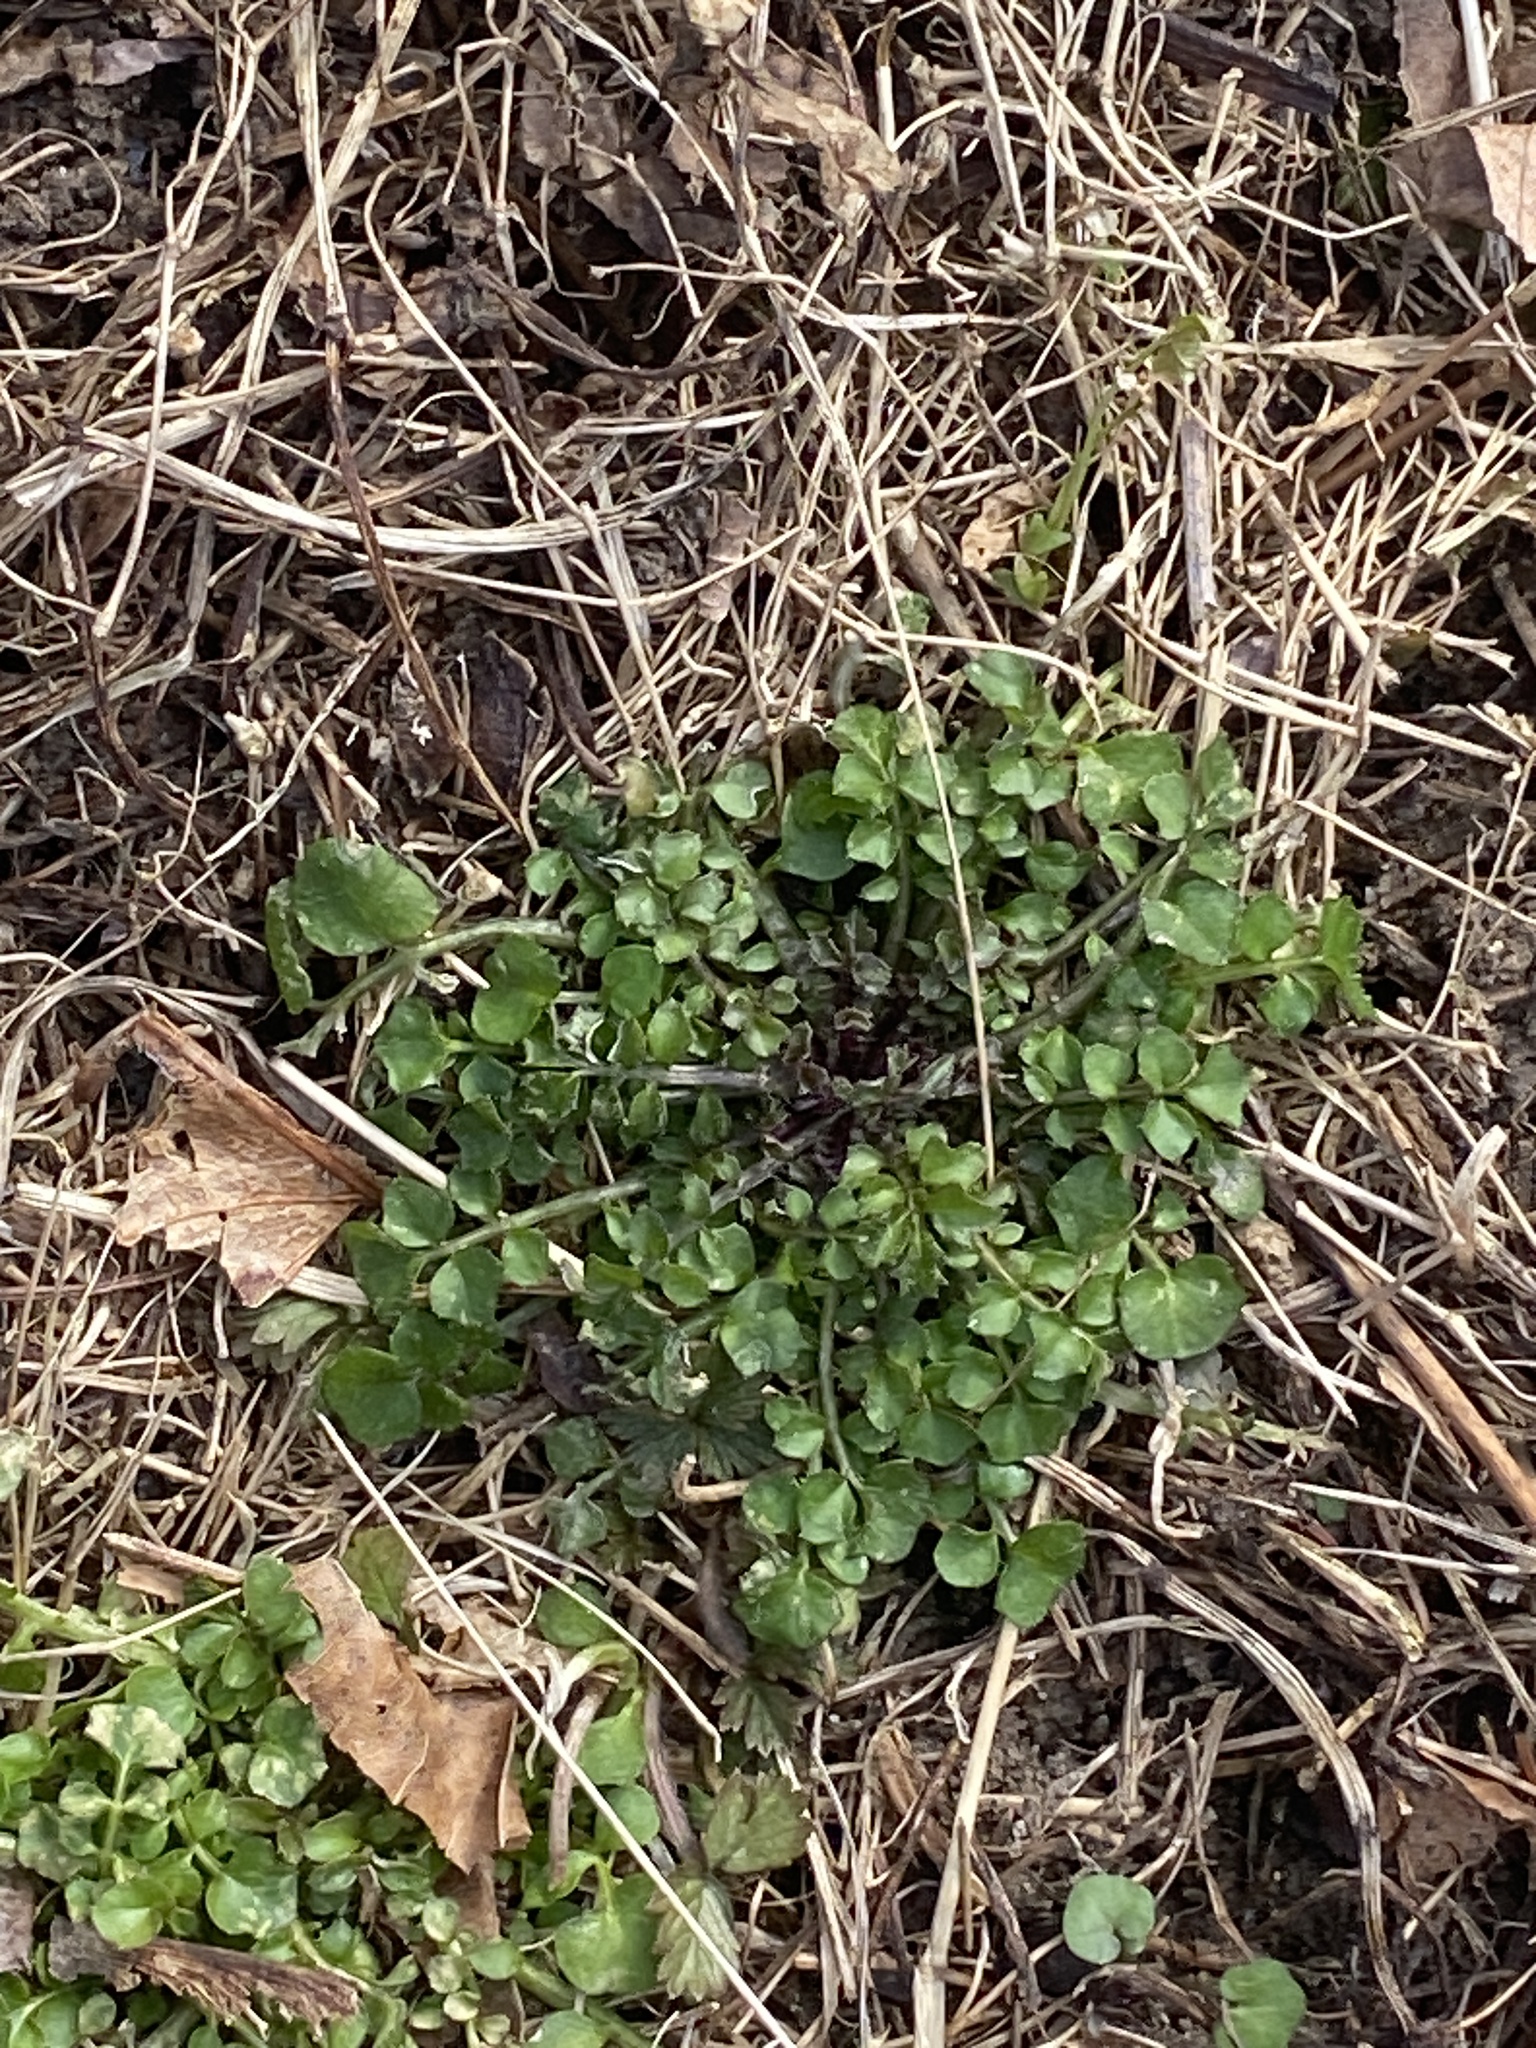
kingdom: Plantae
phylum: Tracheophyta
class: Magnoliopsida
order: Brassicales
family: Brassicaceae
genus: Cardamine
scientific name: Cardamine hirsuta
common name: Hairy bittercress
